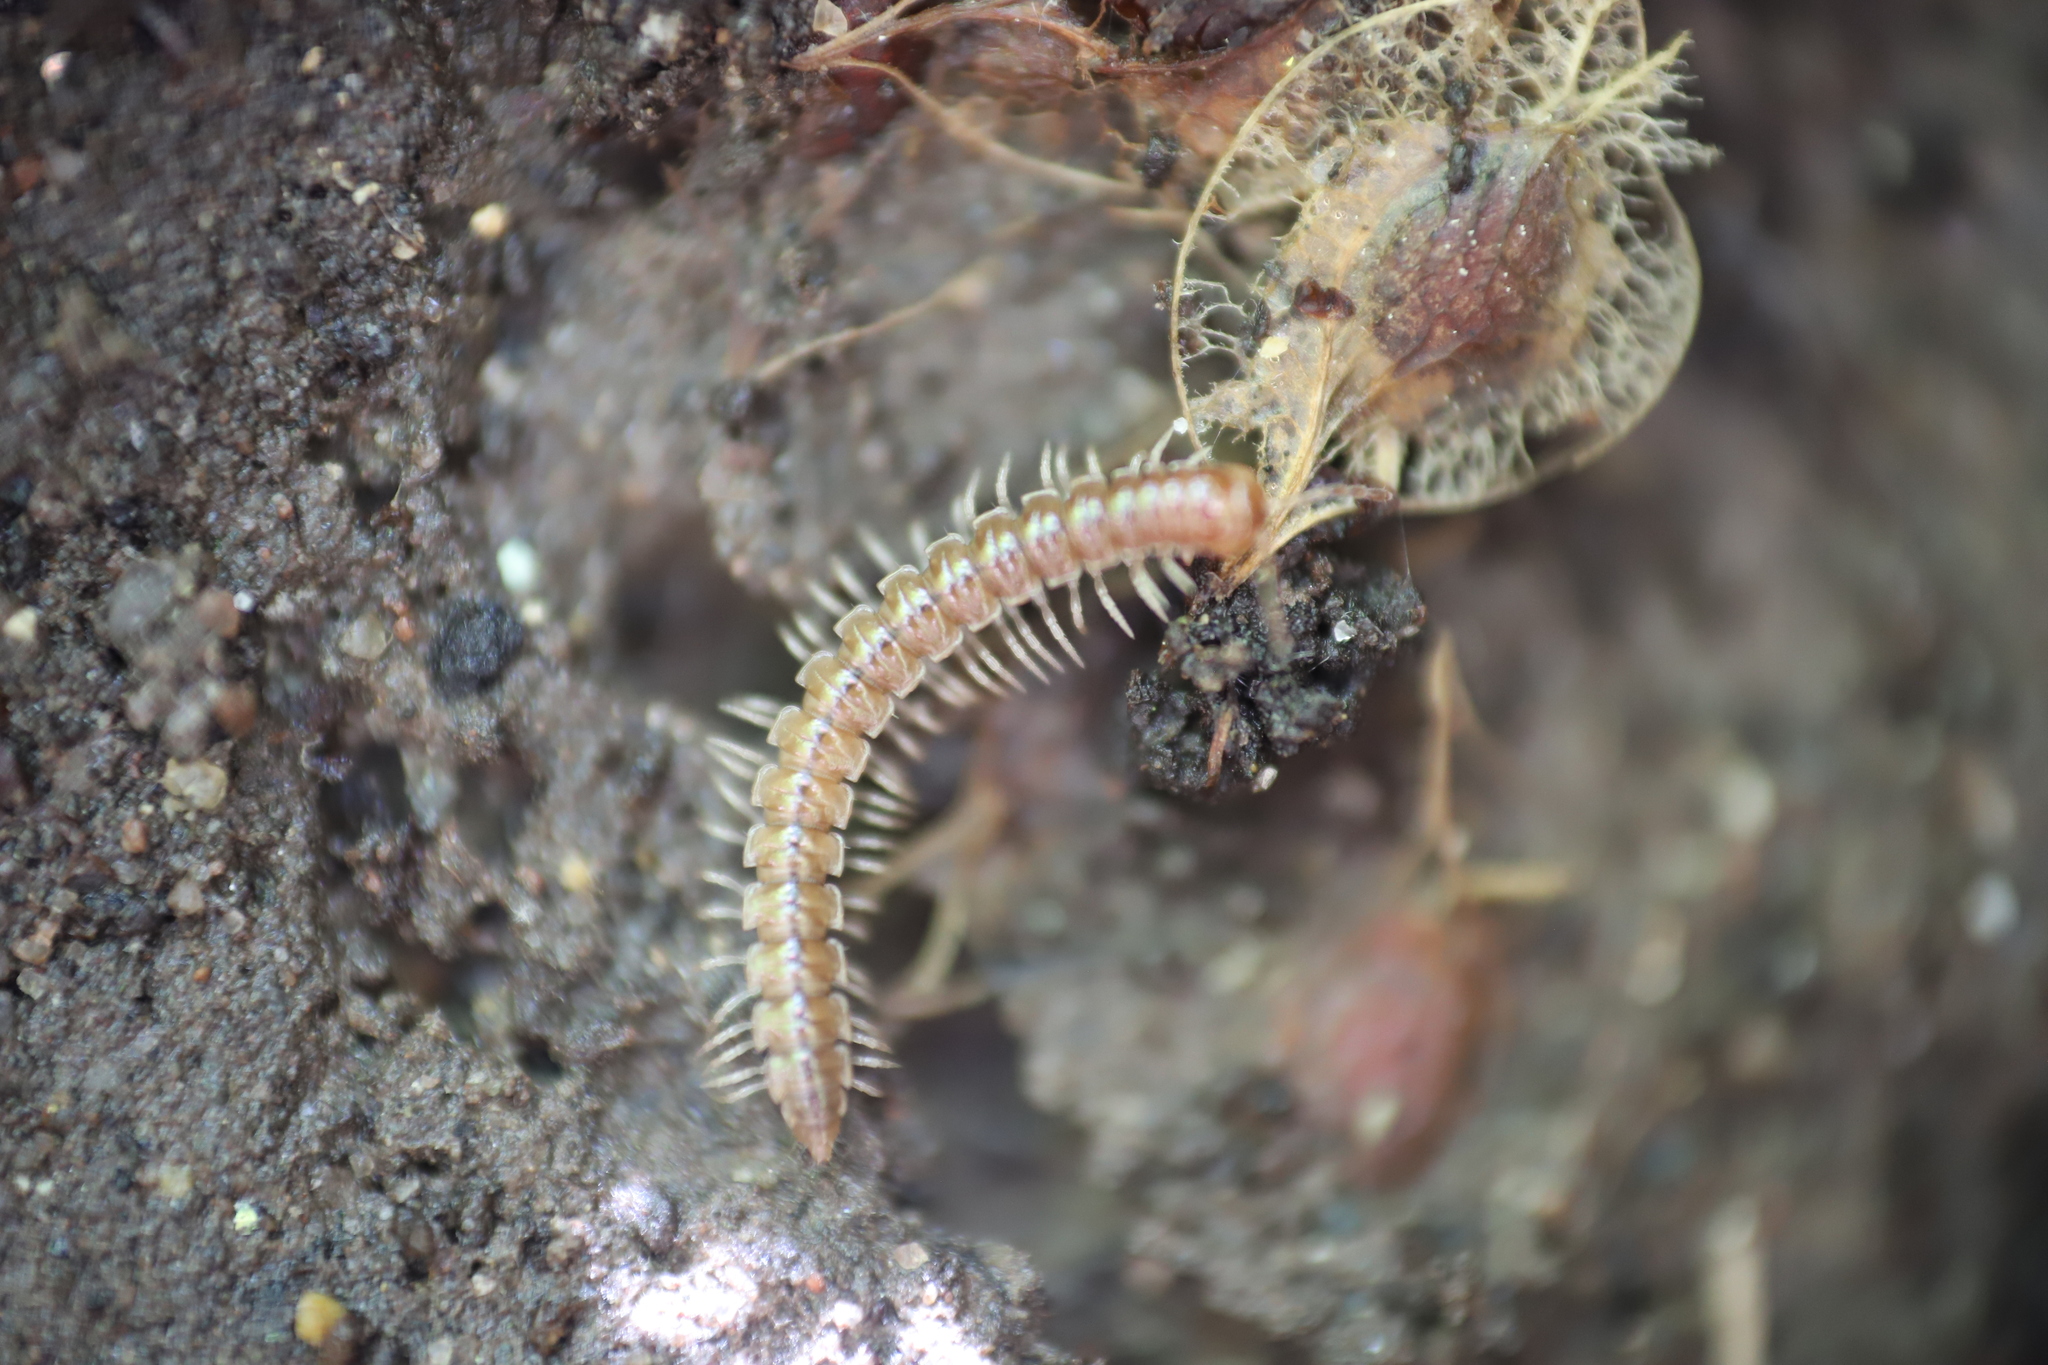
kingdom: Animalia
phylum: Arthropoda
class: Diplopoda
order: Polydesmida
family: Paradoxosomatidae
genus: Oxidus
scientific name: Oxidus gracilis
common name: Greenhouse millipede
